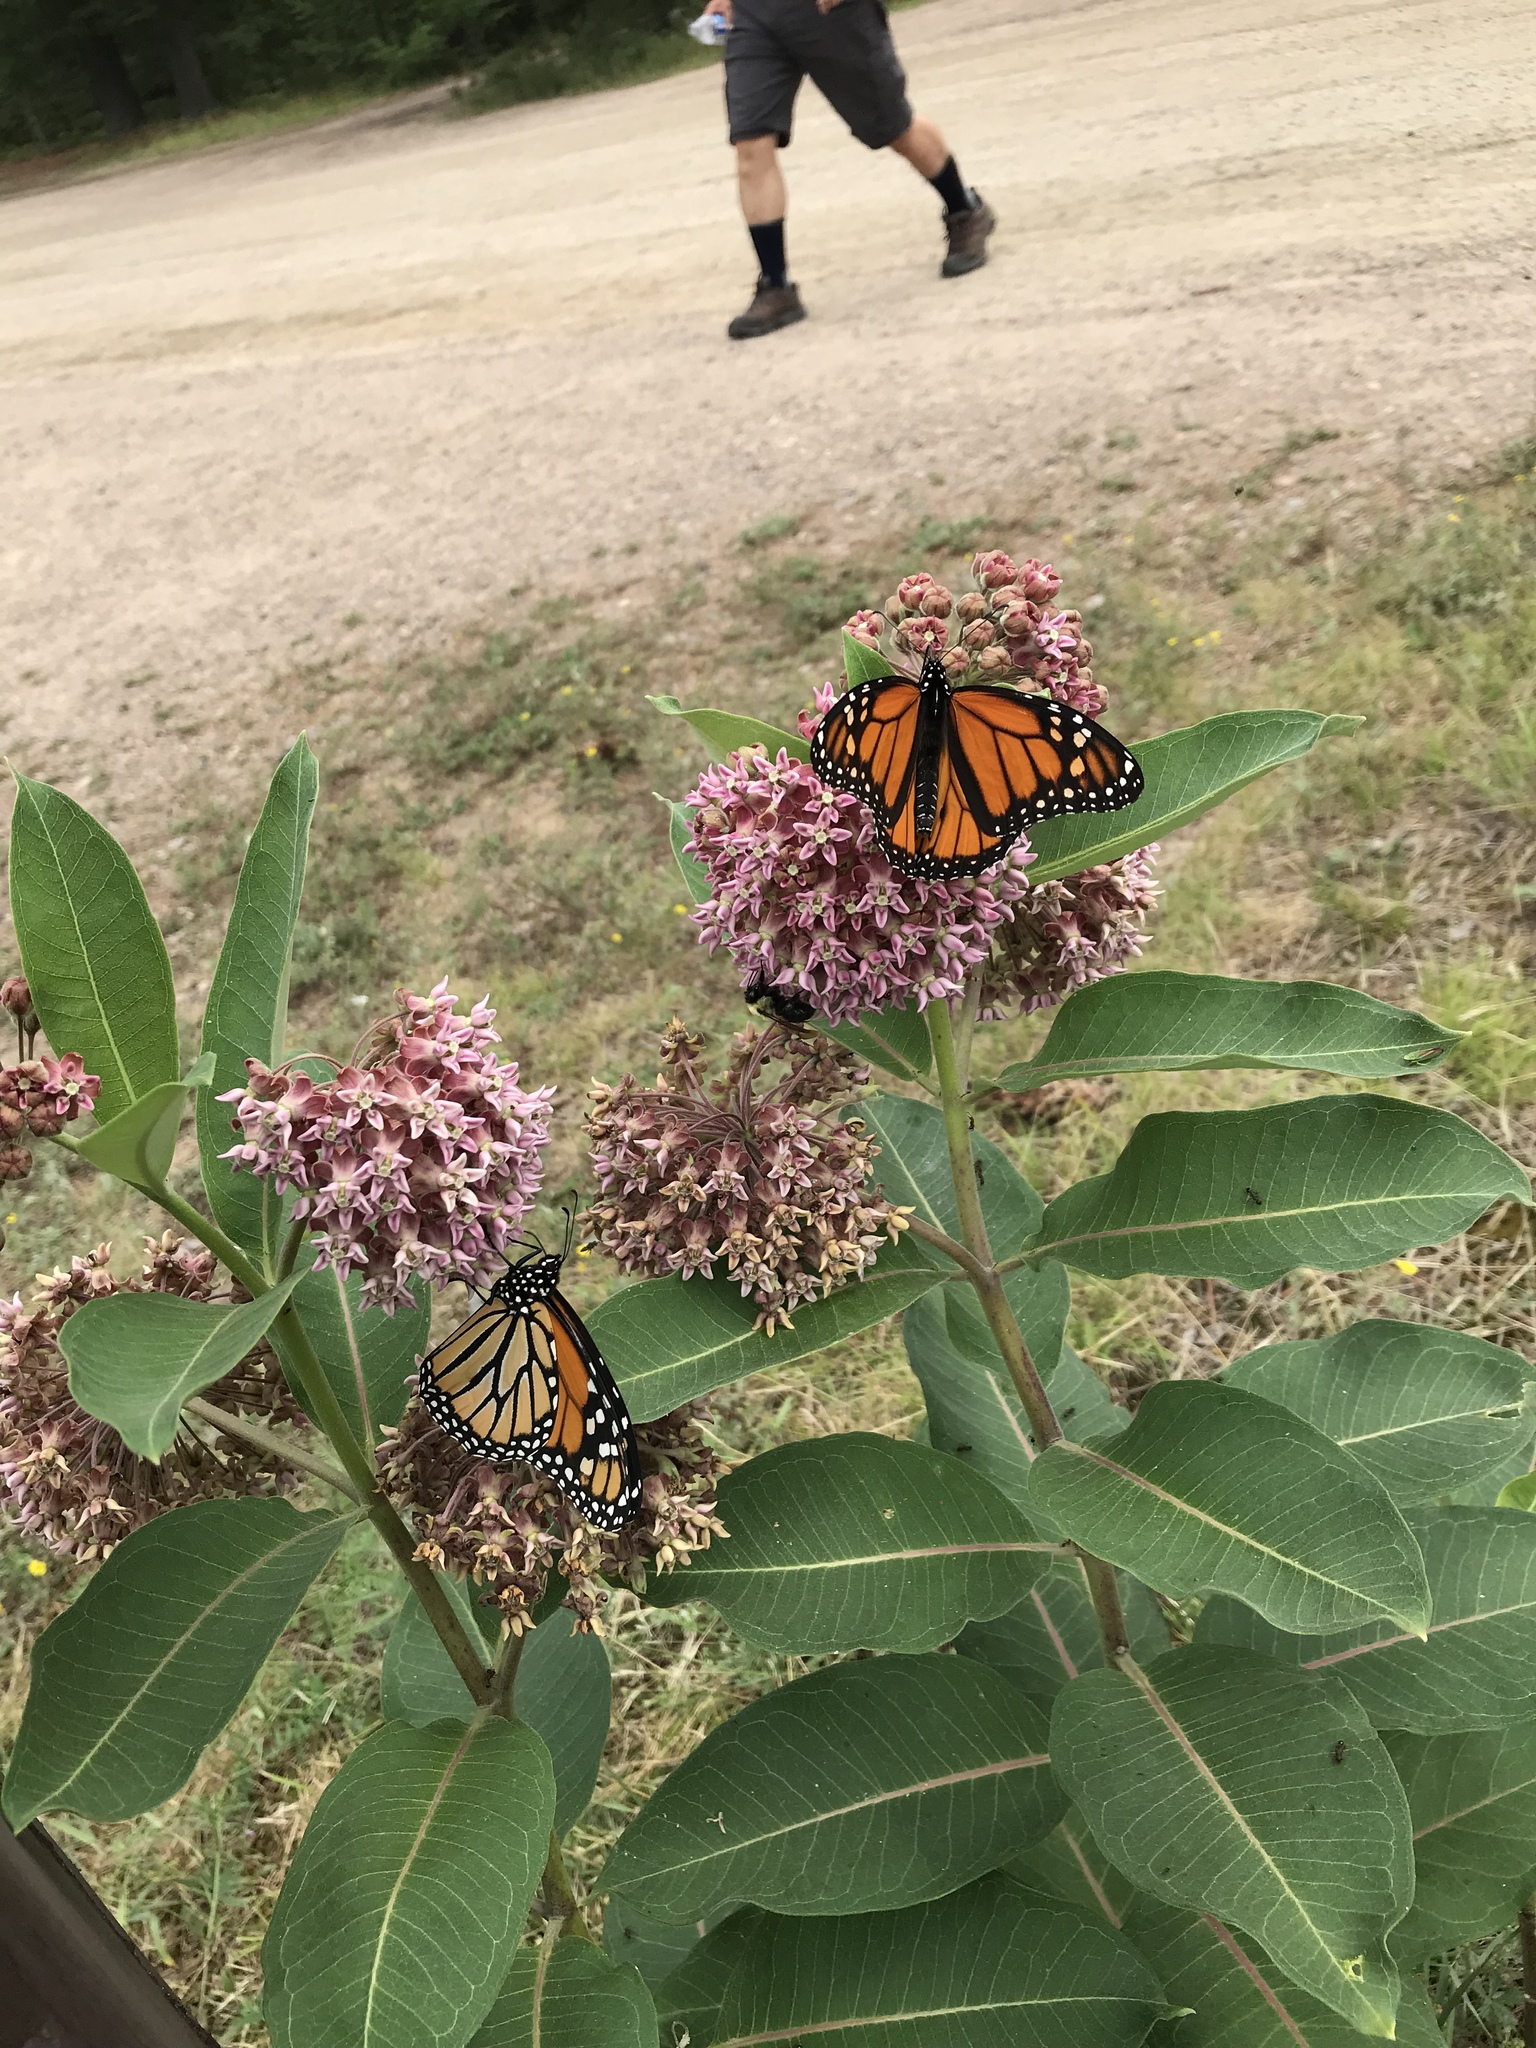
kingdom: Plantae
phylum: Tracheophyta
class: Magnoliopsida
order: Gentianales
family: Apocynaceae
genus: Asclepias
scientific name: Asclepias syriaca
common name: Common milkweed
